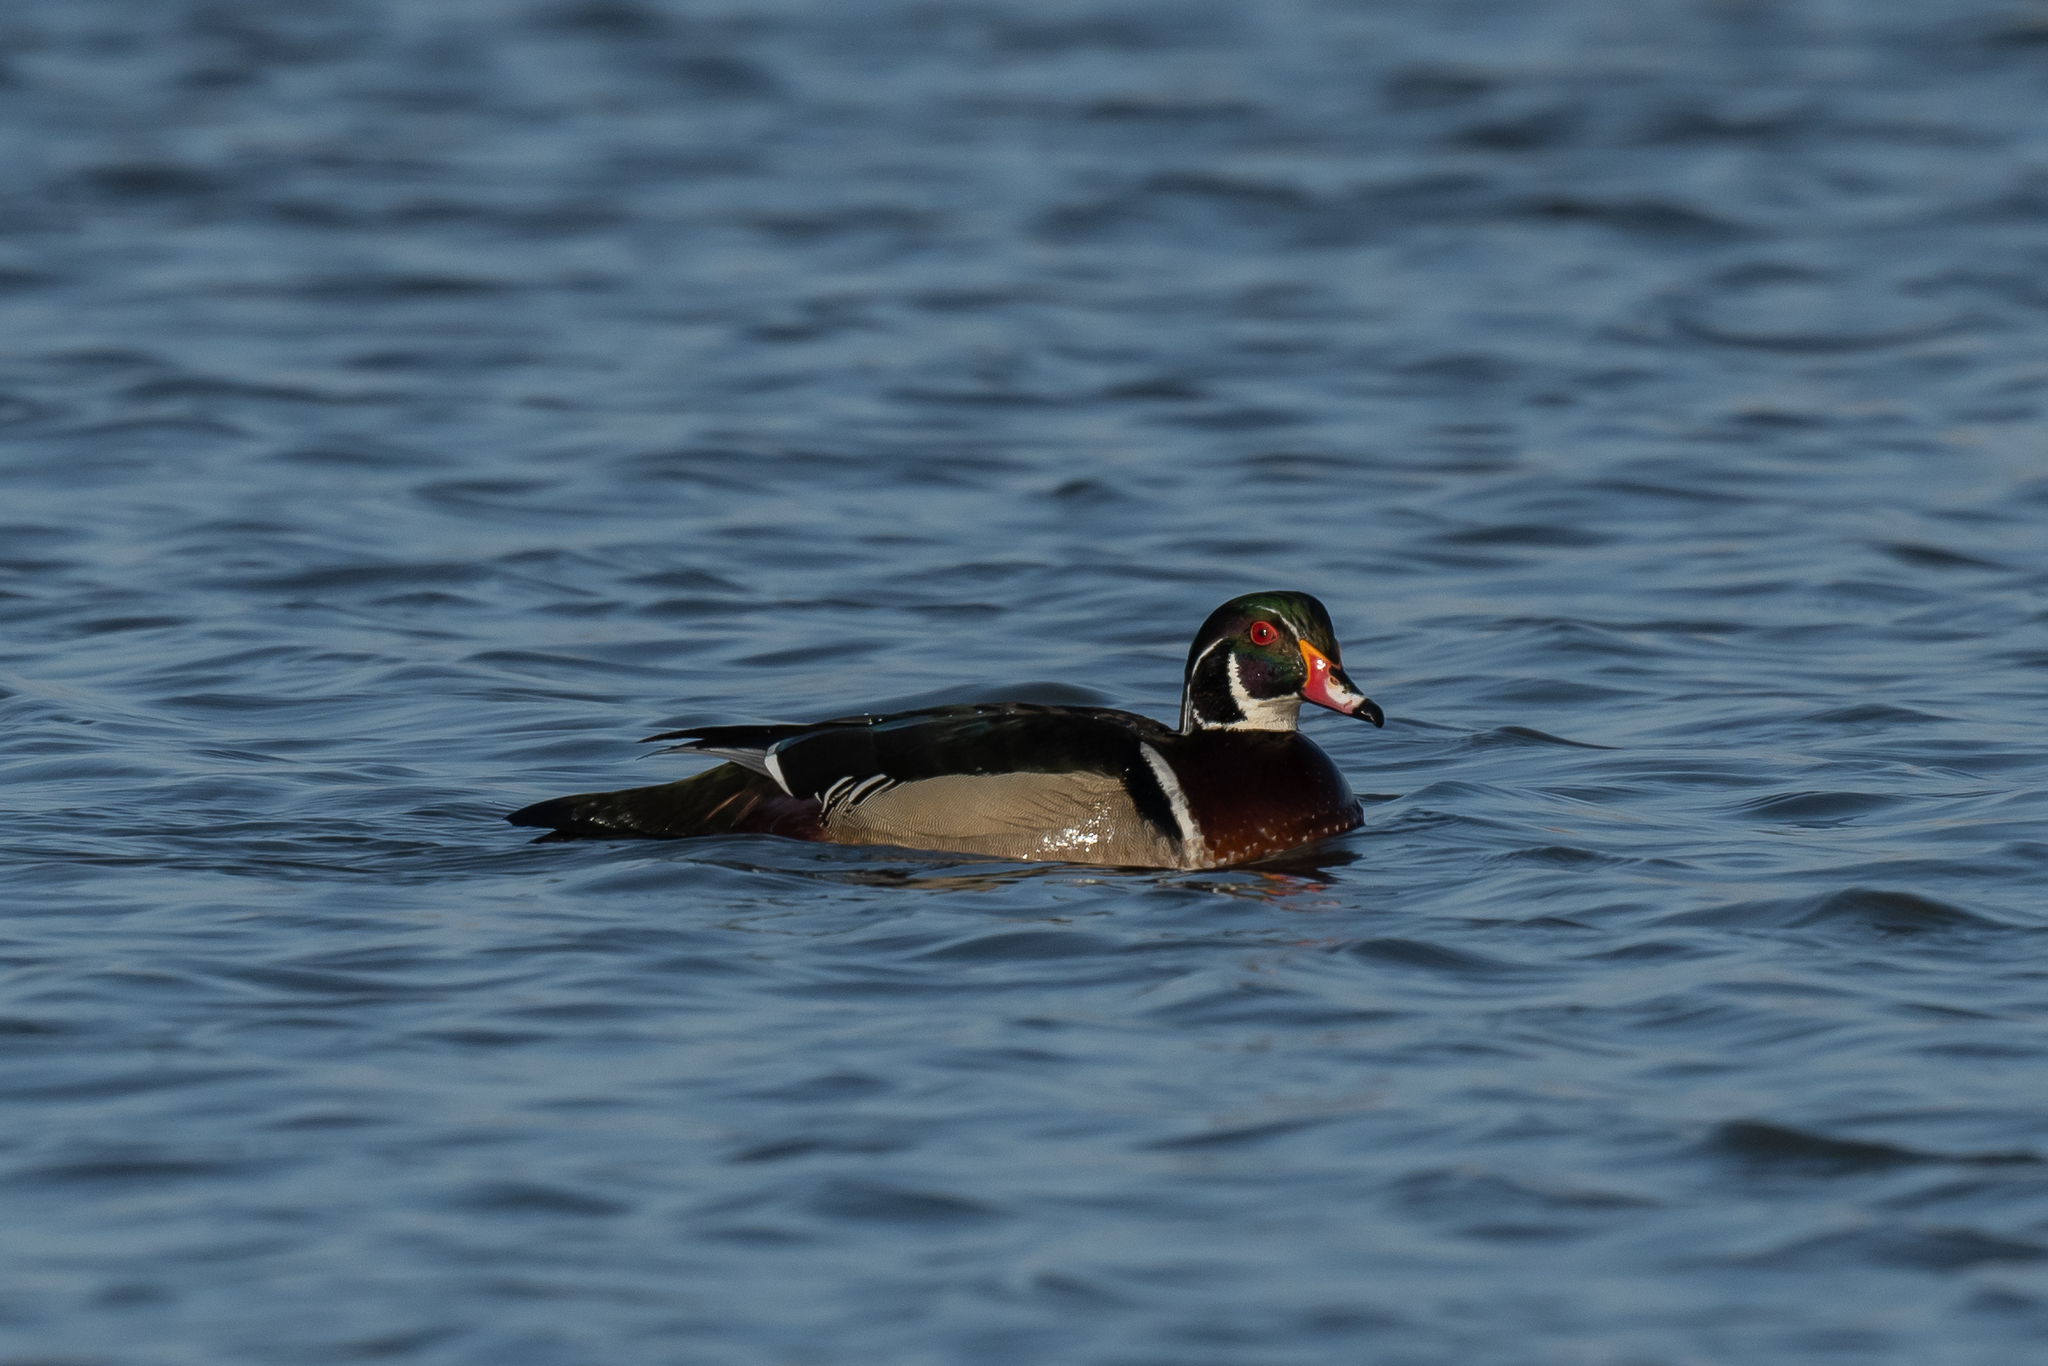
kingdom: Animalia
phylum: Chordata
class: Aves
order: Anseriformes
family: Anatidae
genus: Aix
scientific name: Aix sponsa
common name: Wood duck
